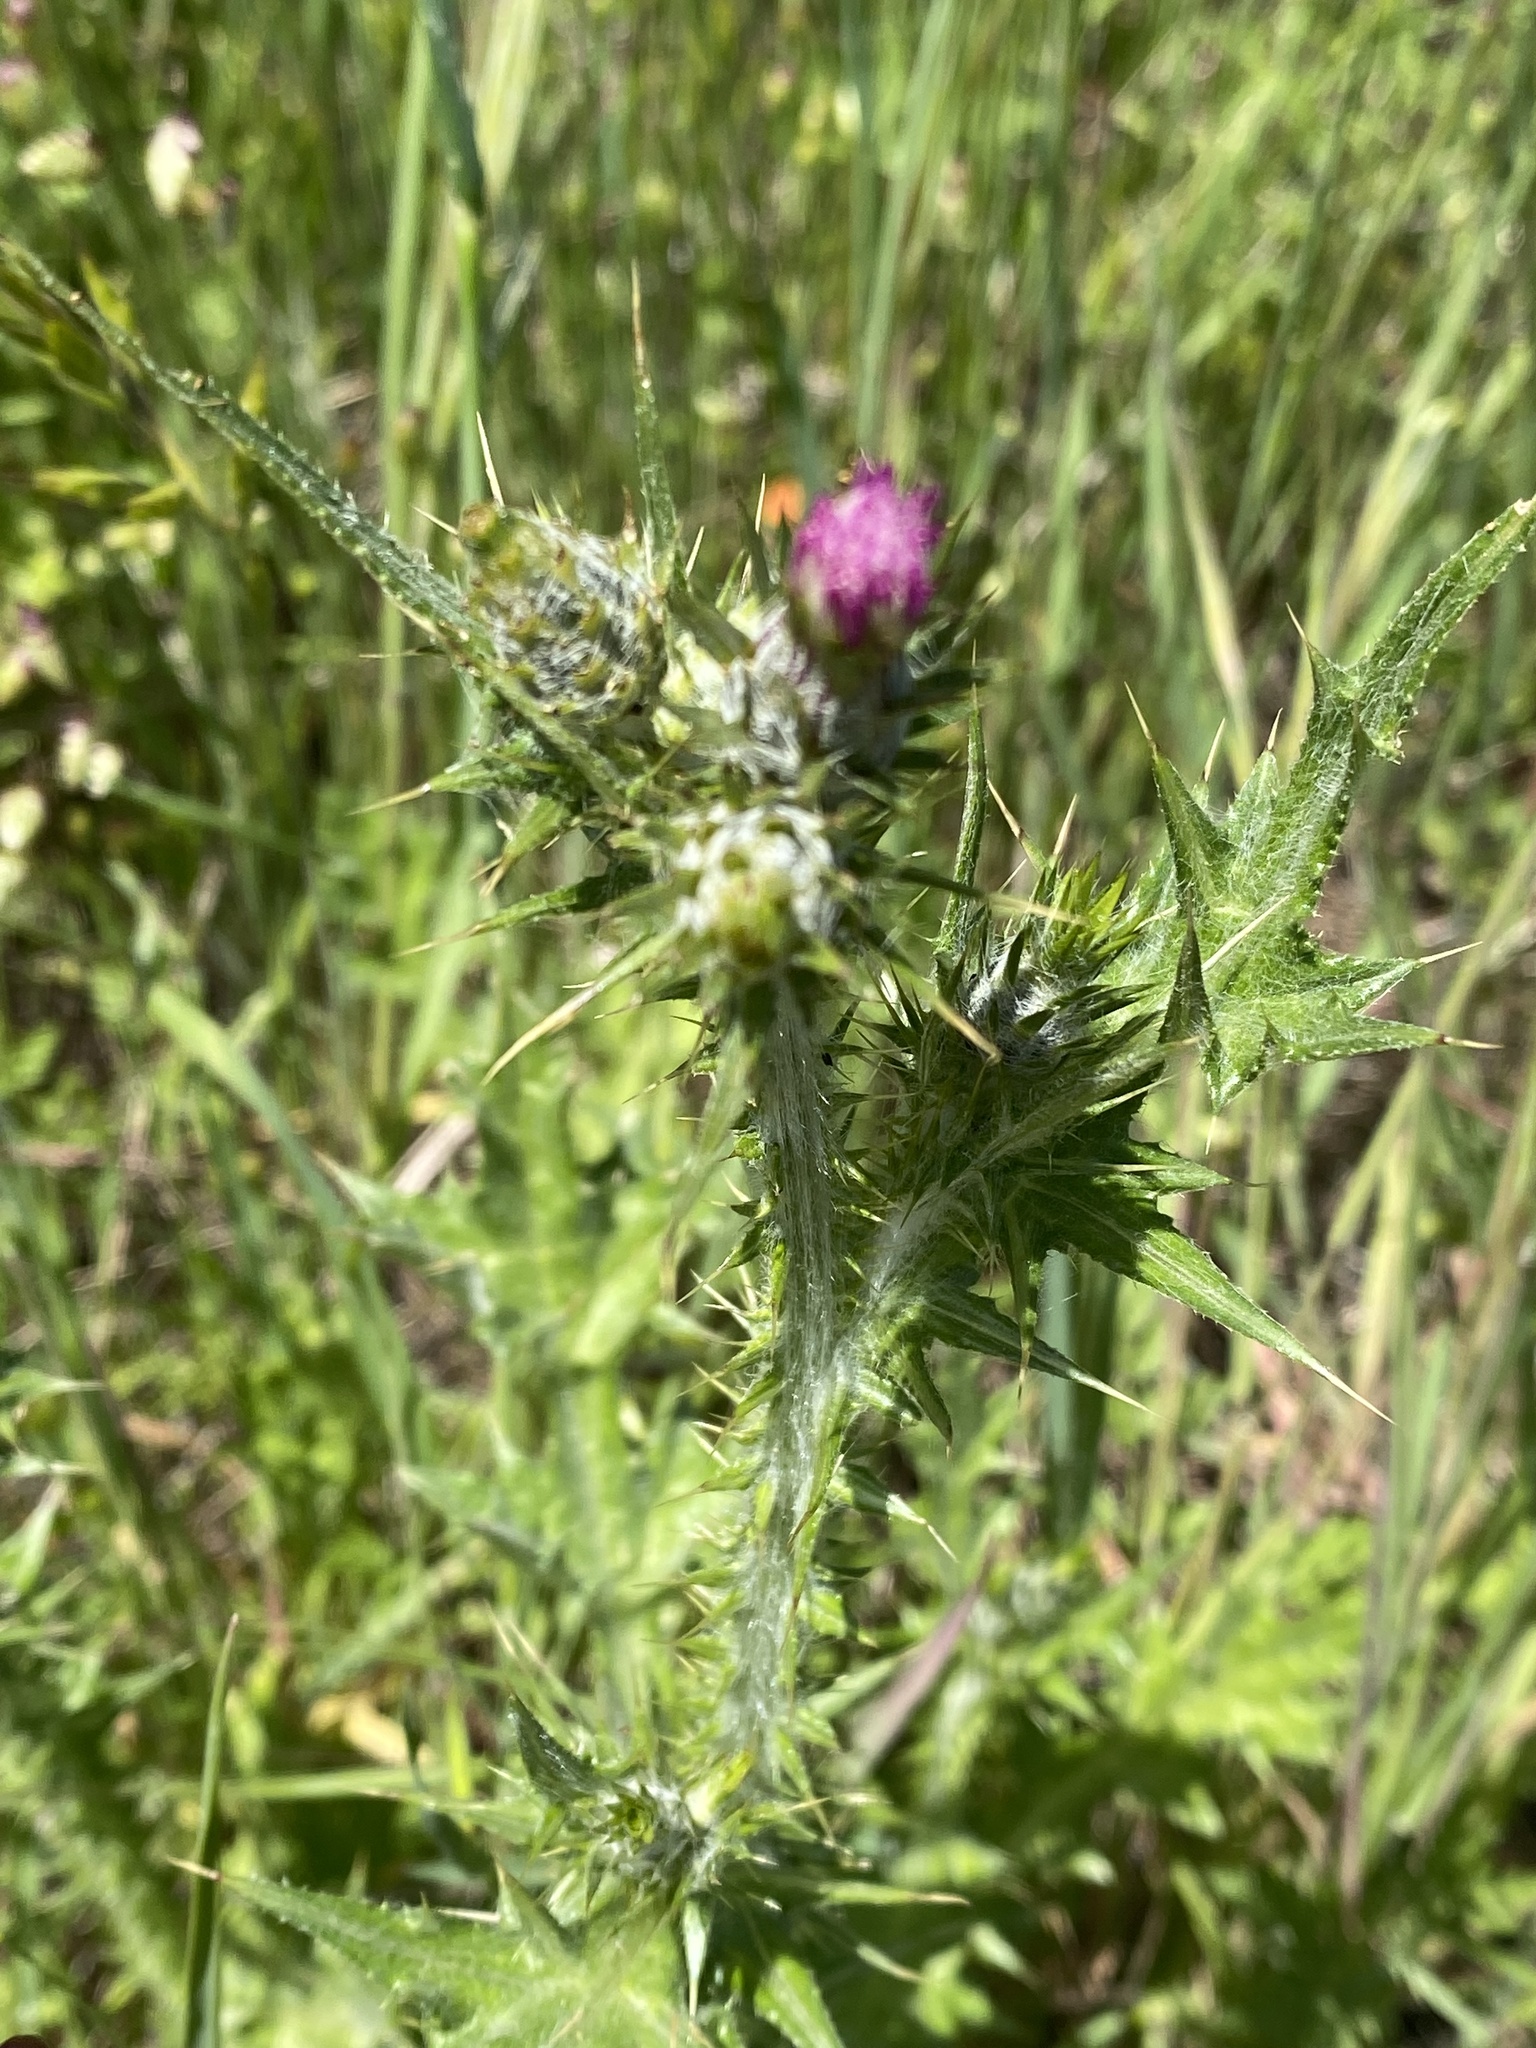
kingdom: Plantae
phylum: Tracheophyta
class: Magnoliopsida
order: Asterales
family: Asteraceae
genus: Carduus
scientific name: Carduus pycnocephalus
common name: Plymouth thistle
